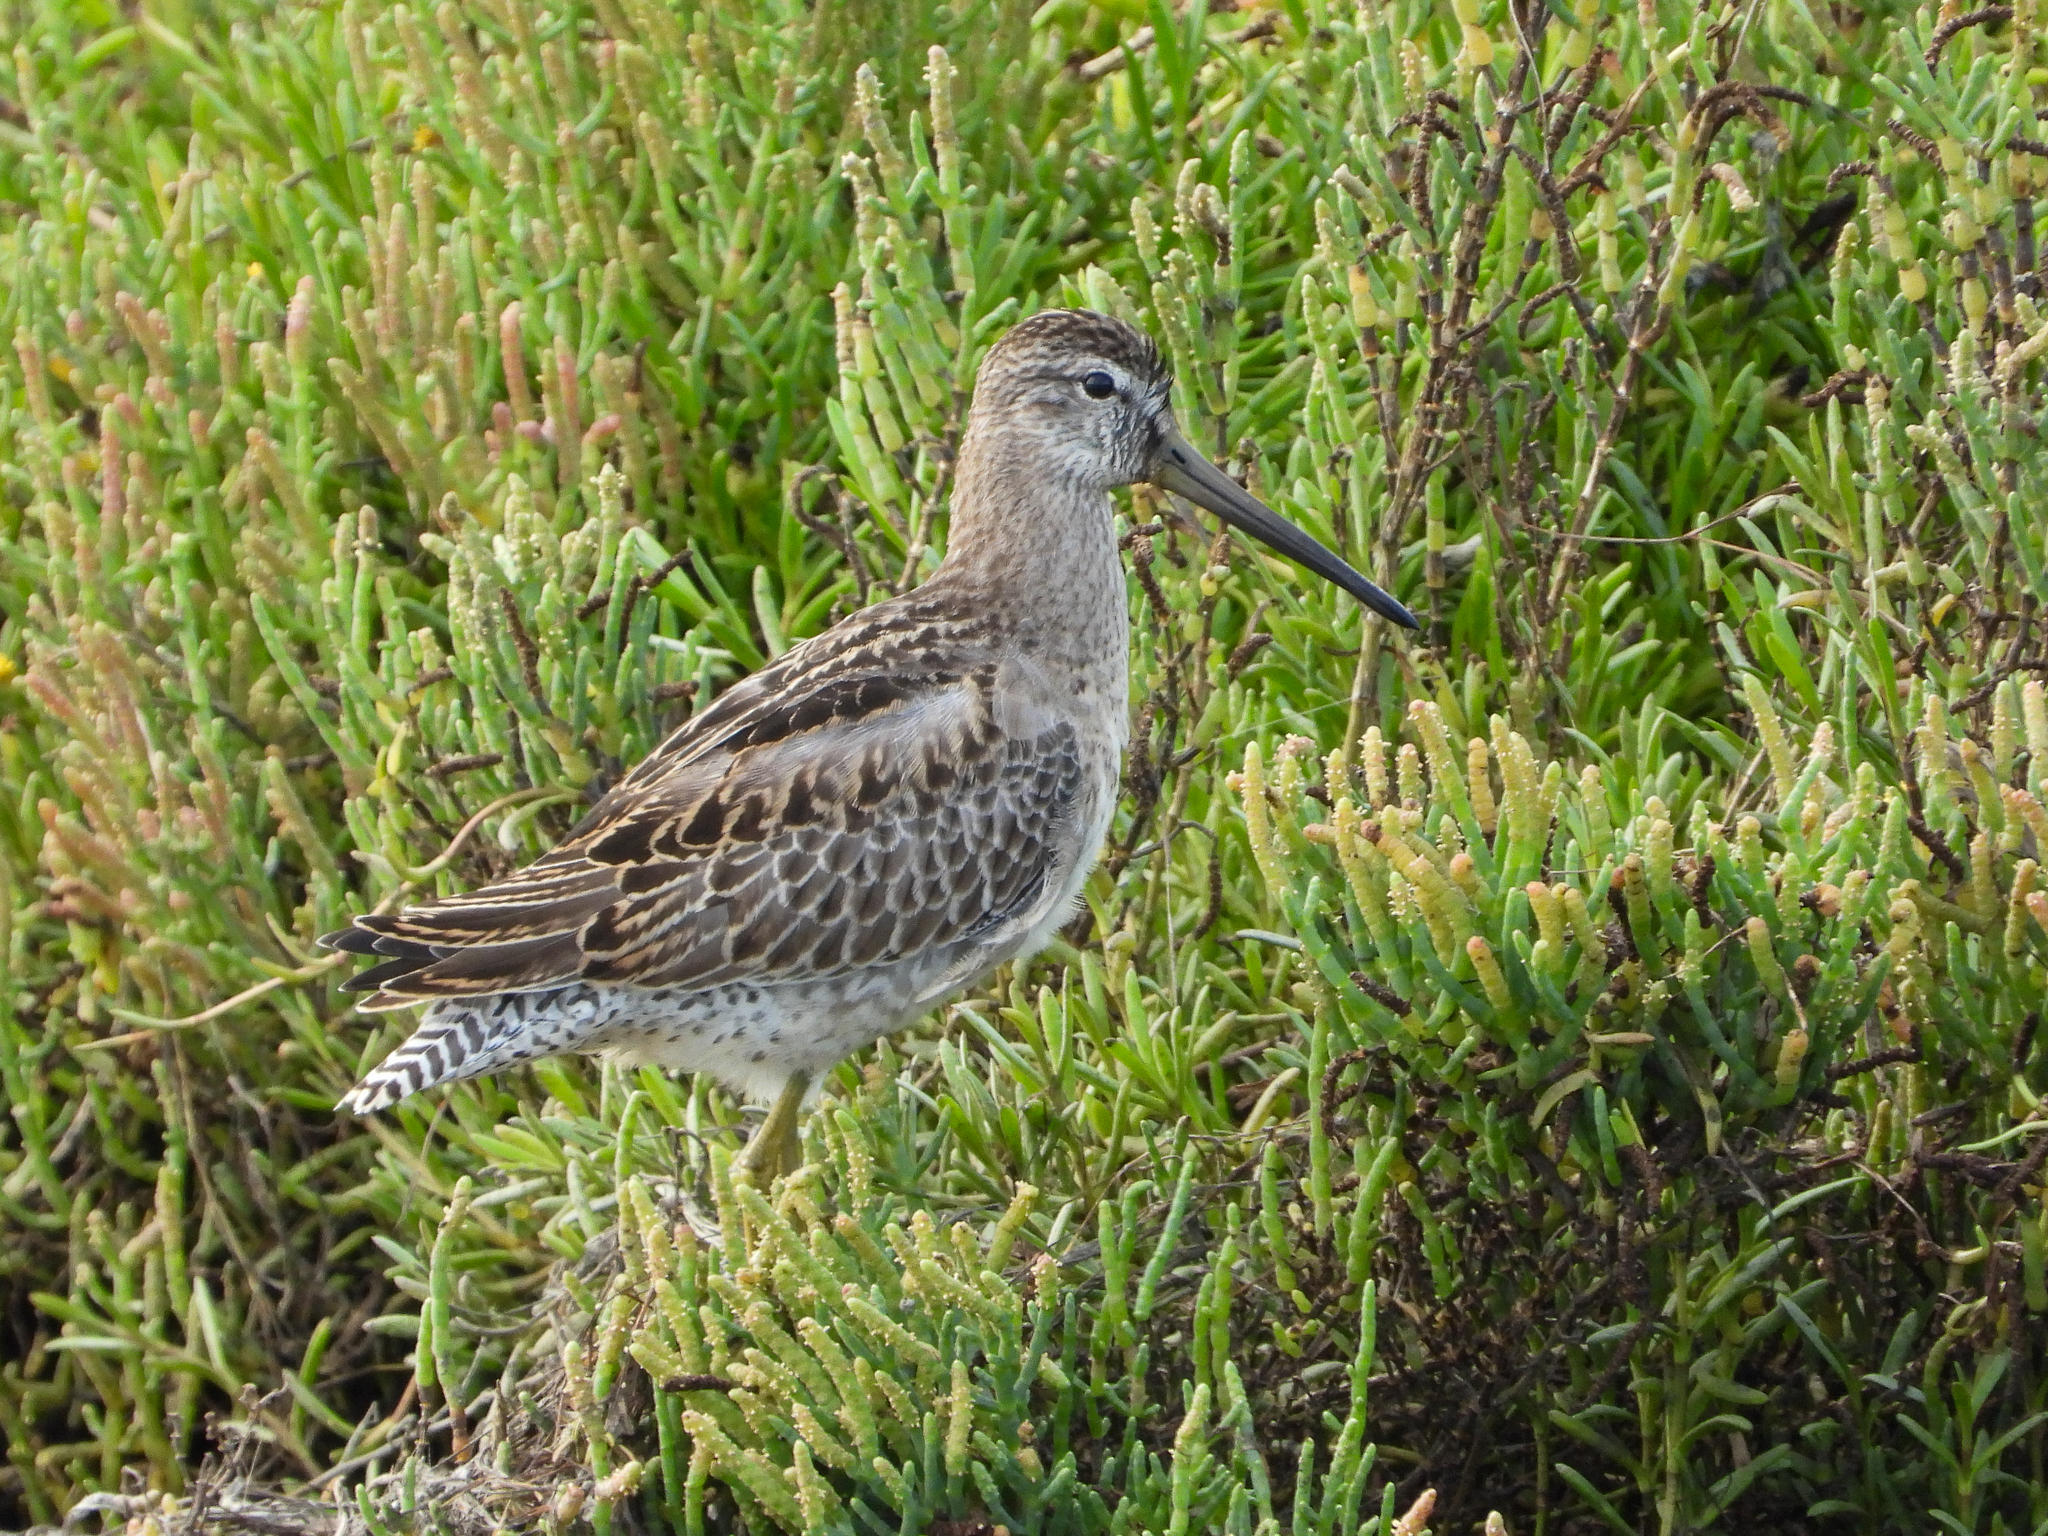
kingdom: Animalia
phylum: Chordata
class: Aves
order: Charadriiformes
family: Scolopacidae
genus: Limnodromus
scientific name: Limnodromus griseus
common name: Short-billed dowitcher
